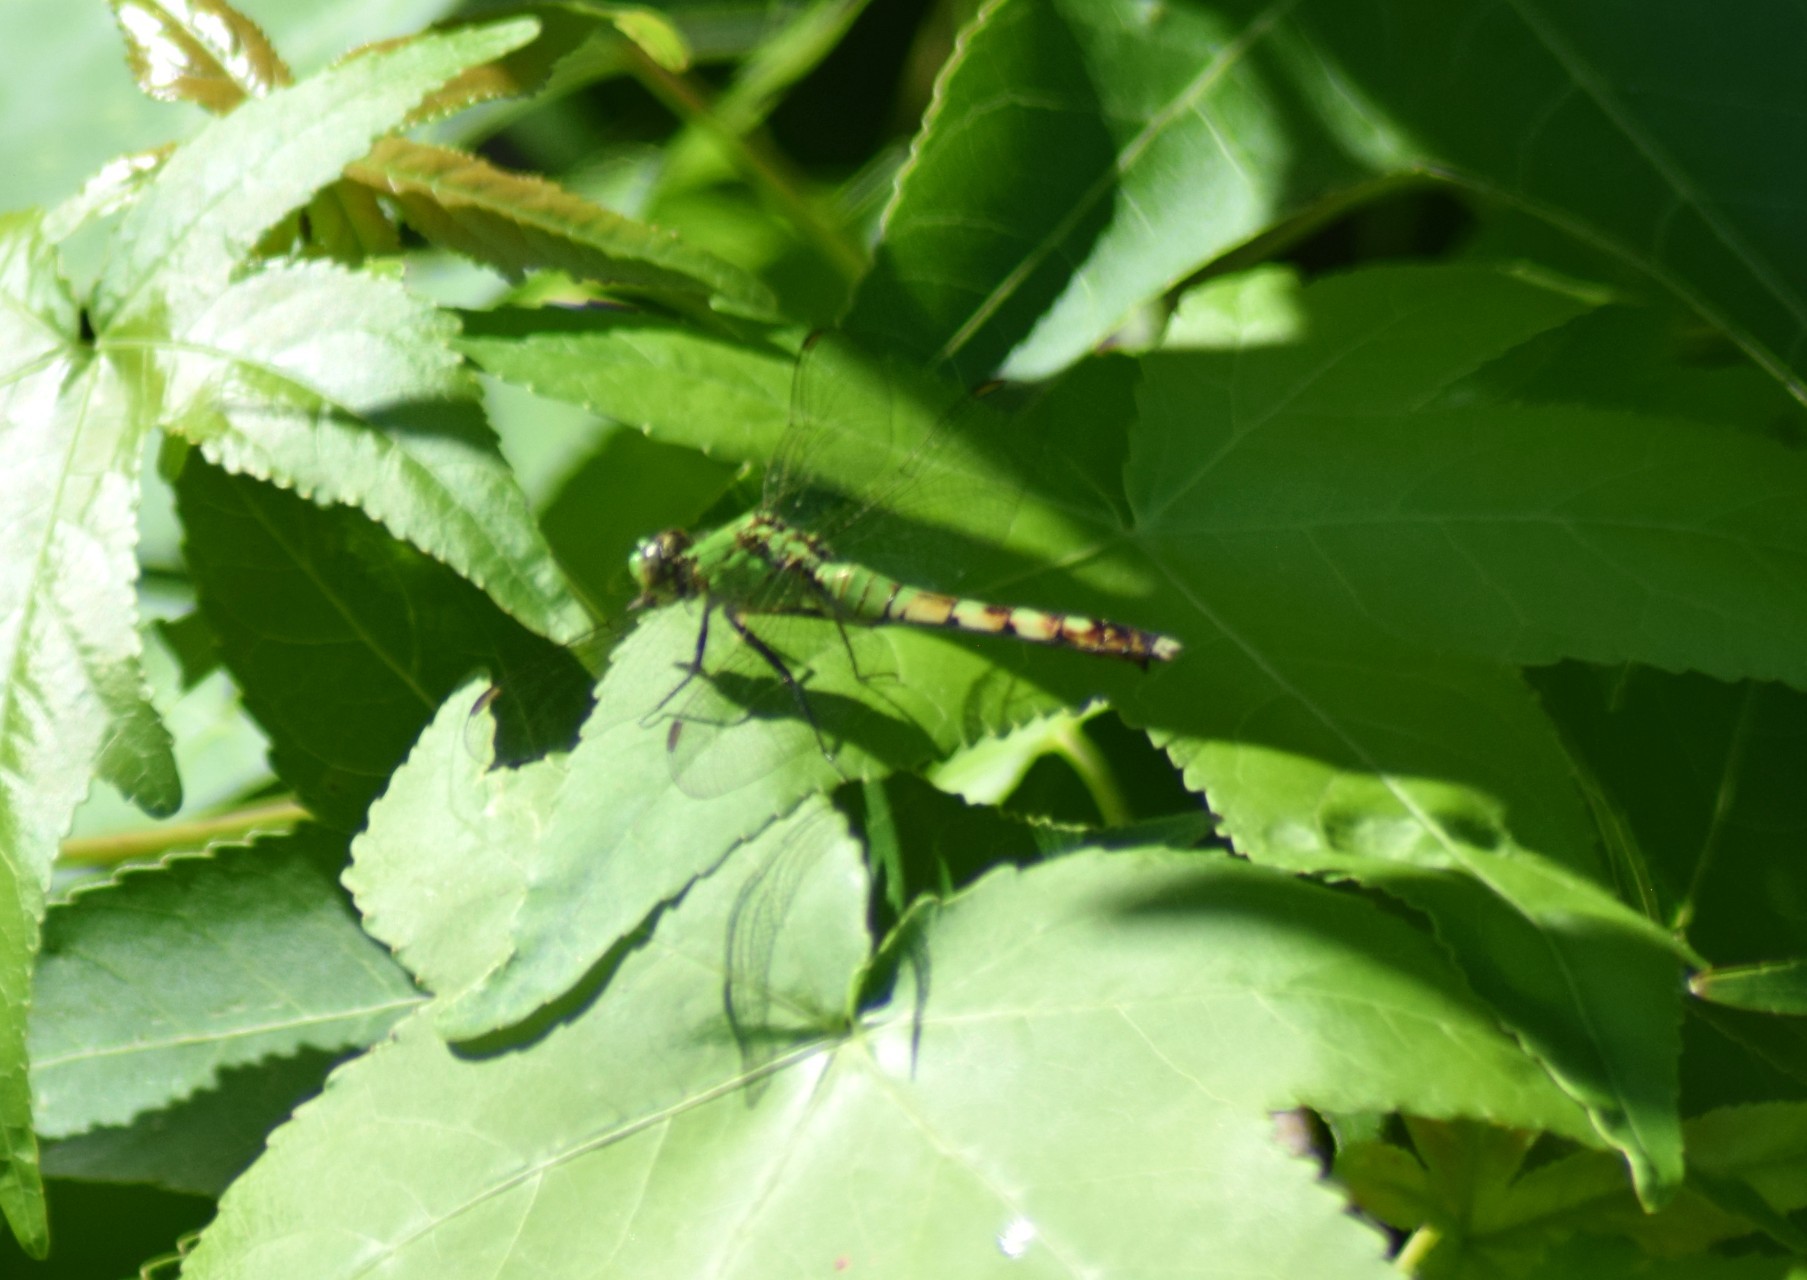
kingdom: Animalia
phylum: Arthropoda
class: Insecta
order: Odonata
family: Libellulidae
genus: Erythemis
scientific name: Erythemis simplicicollis
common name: Eastern pondhawk
